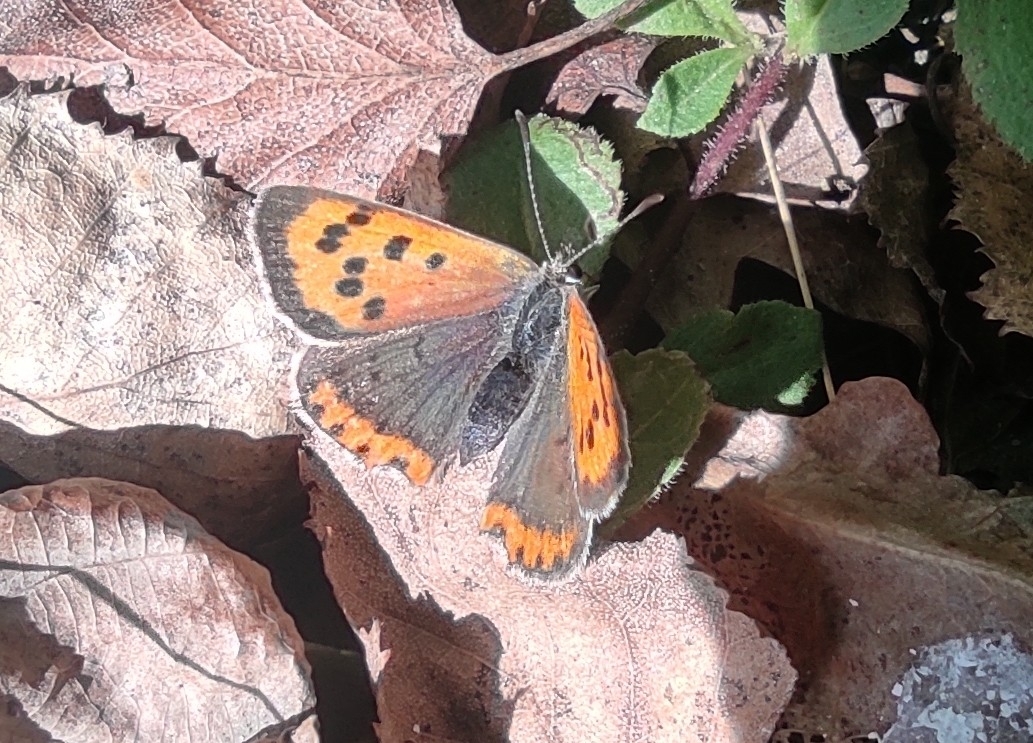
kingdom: Animalia
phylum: Arthropoda
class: Insecta
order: Lepidoptera
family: Lycaenidae
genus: Lycaena
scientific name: Lycaena phlaeas
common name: Small copper
